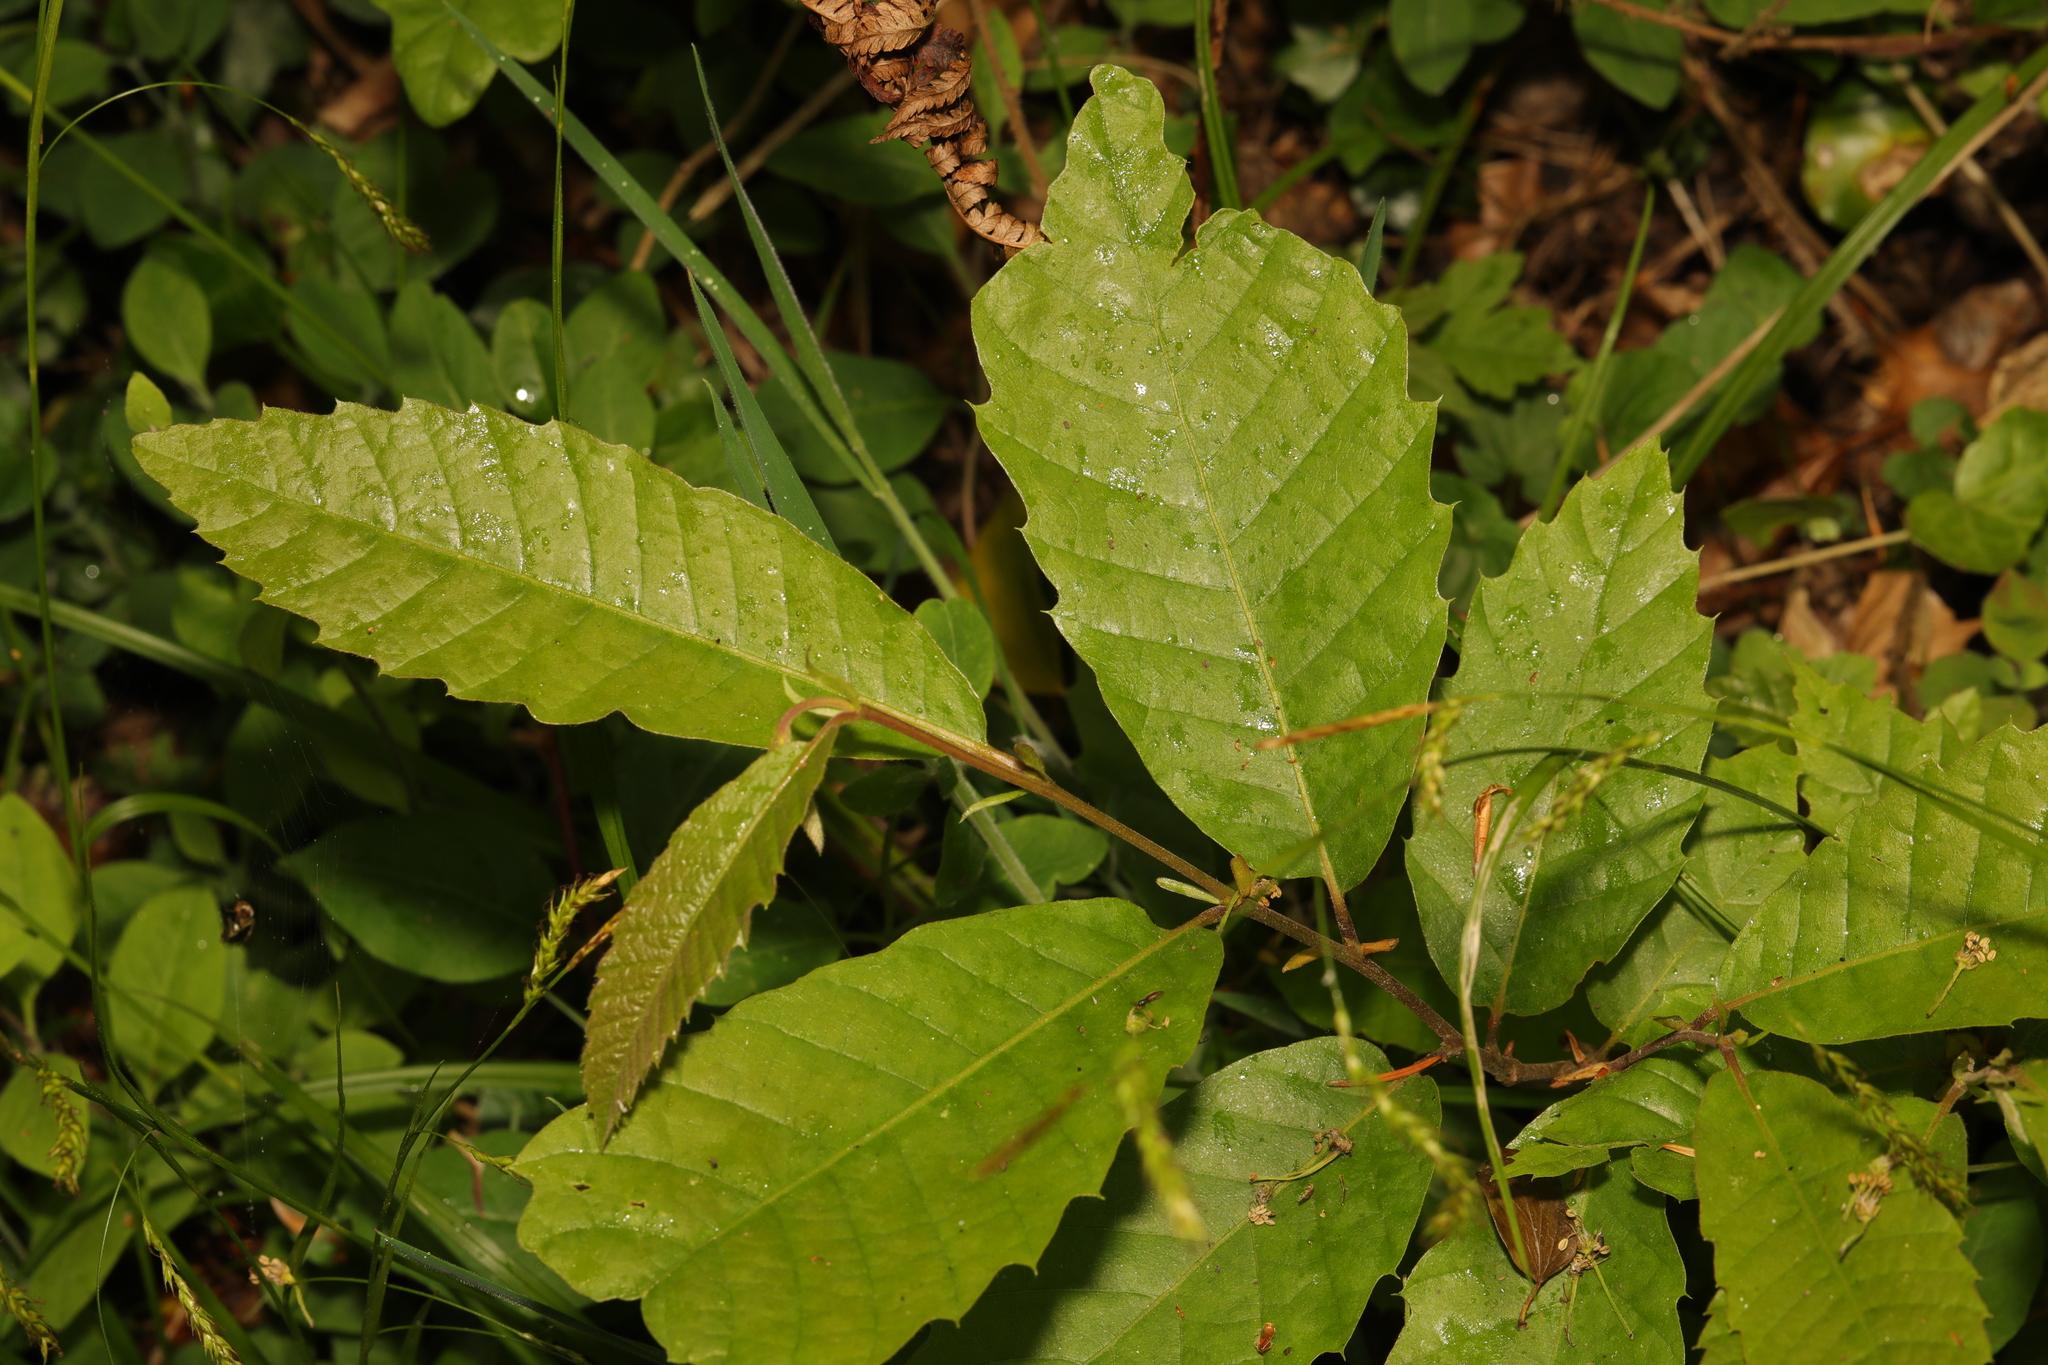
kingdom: Plantae
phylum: Tracheophyta
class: Magnoliopsida
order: Fagales
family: Fagaceae
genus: Castanea
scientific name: Castanea sativa
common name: Sweet chestnut
